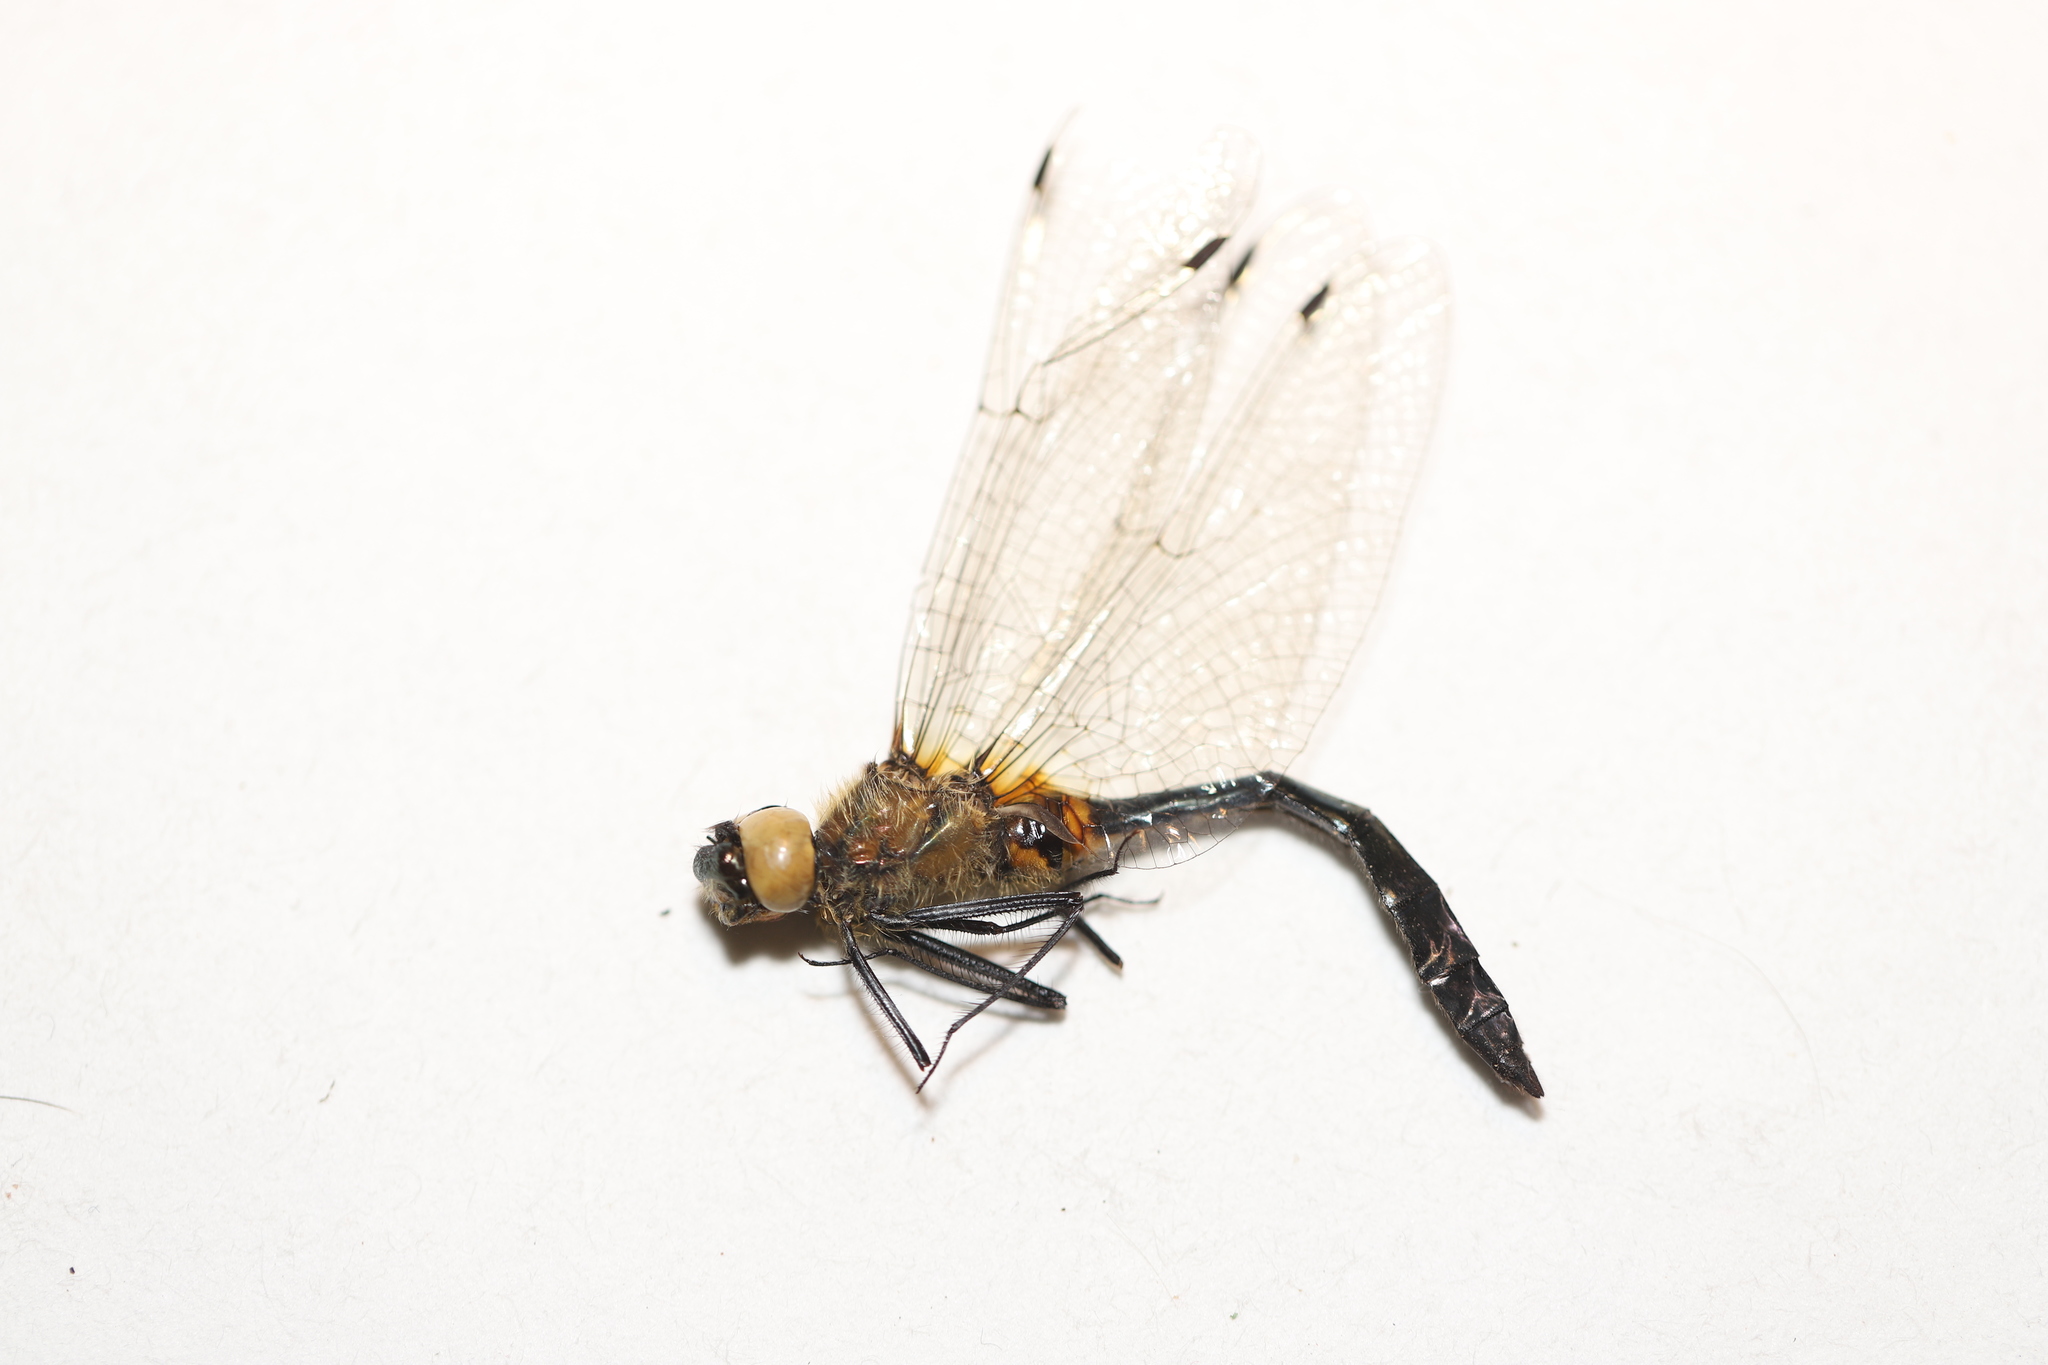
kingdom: Animalia
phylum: Arthropoda
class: Insecta
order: Odonata
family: Corduliidae
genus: Dorocordulia
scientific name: Dorocordulia libera
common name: Racket-tailed emerald
